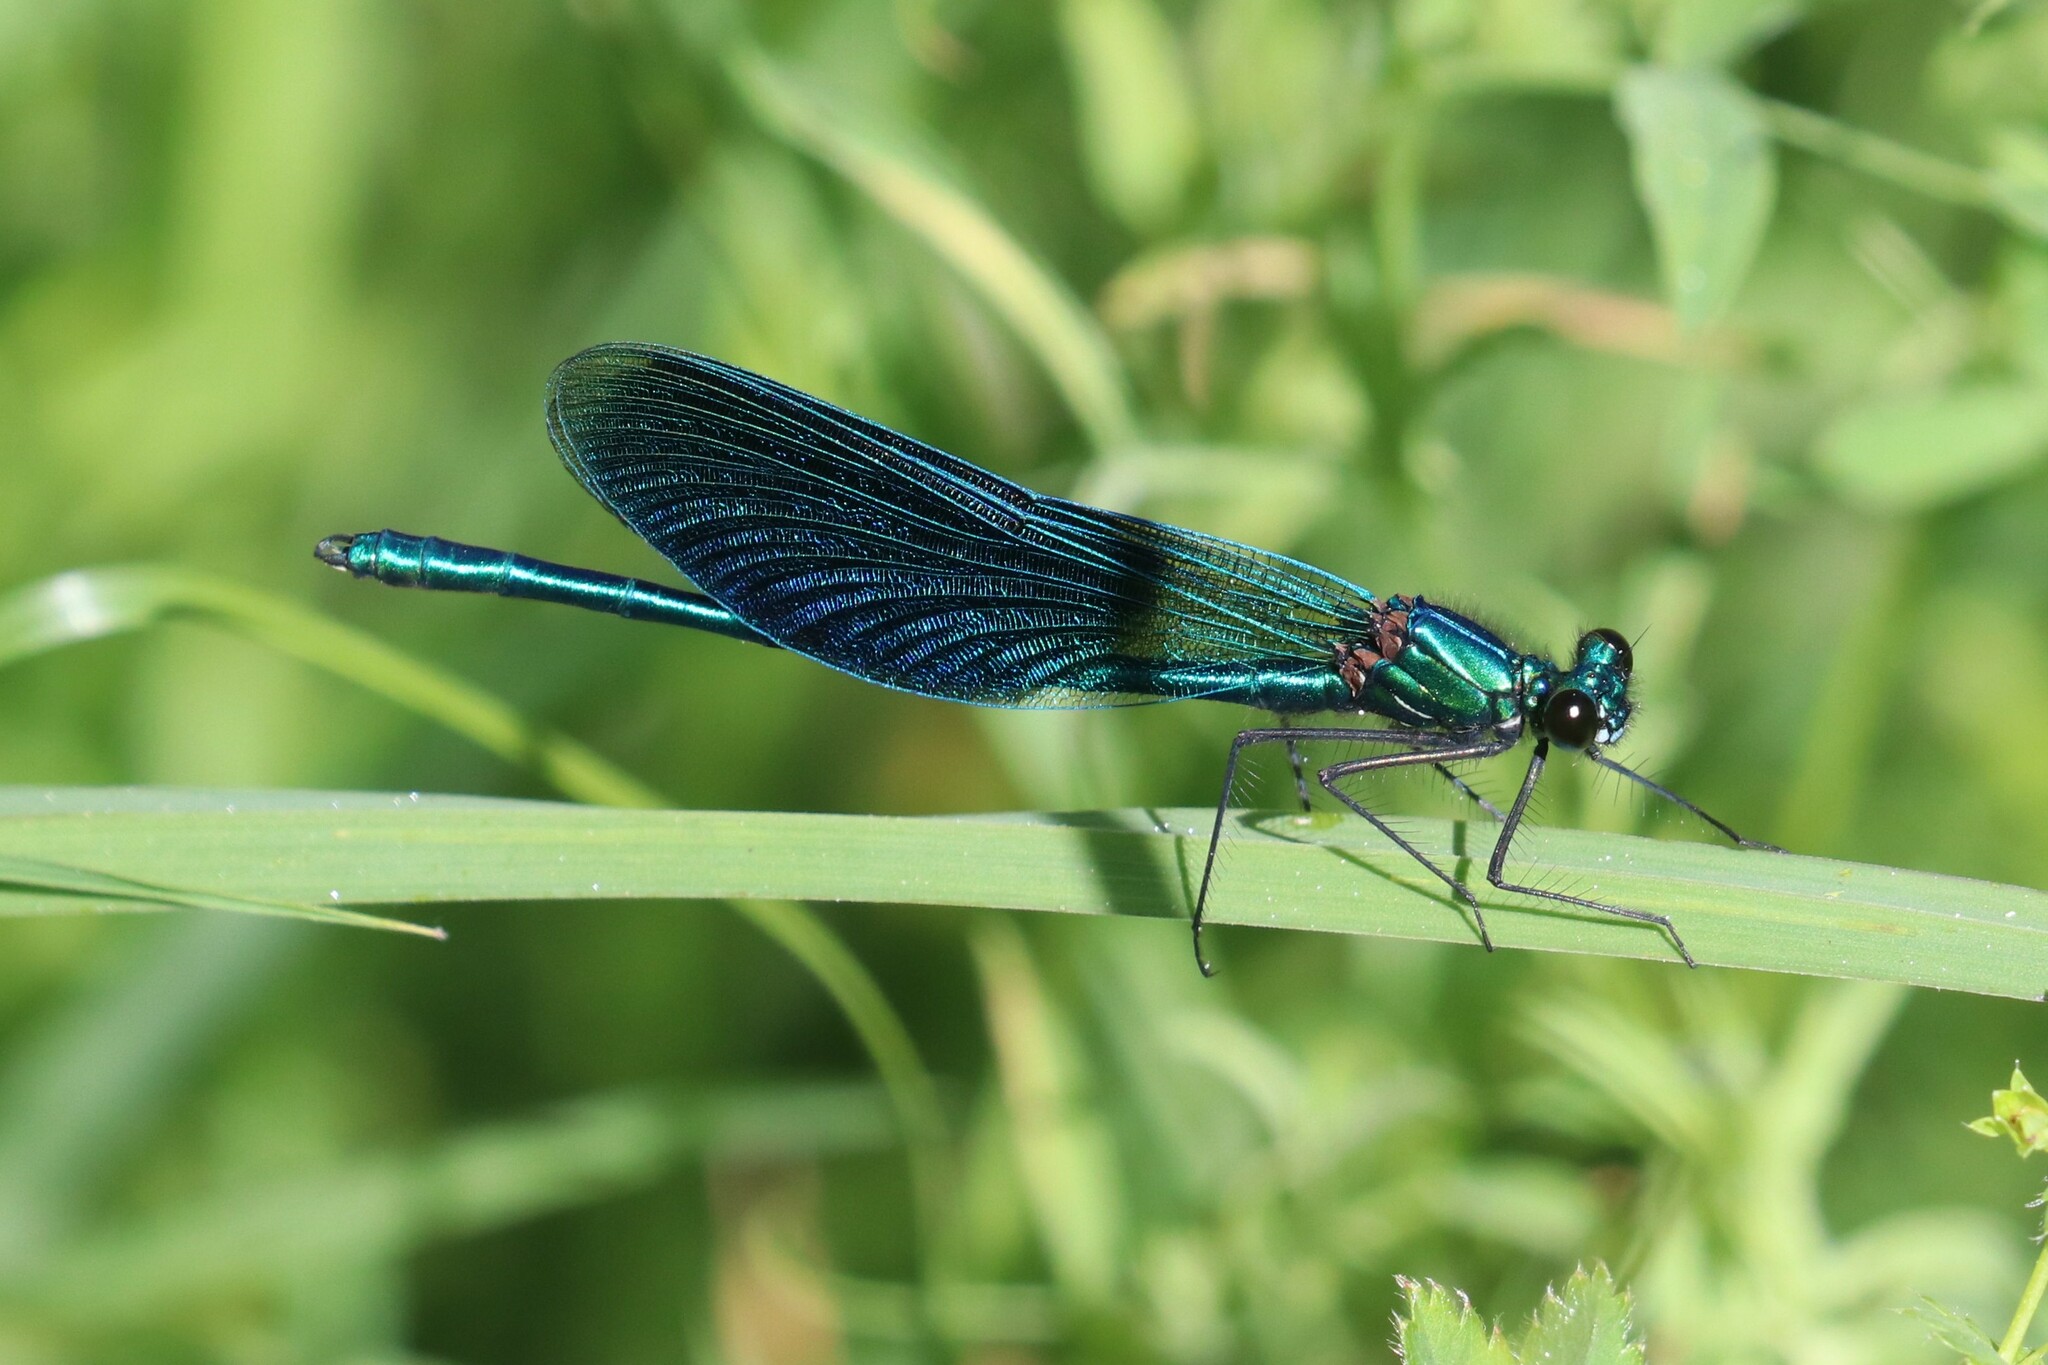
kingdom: Animalia
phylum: Arthropoda
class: Insecta
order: Odonata
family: Calopterygidae
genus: Calopteryx
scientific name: Calopteryx splendens
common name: Banded demoiselle
